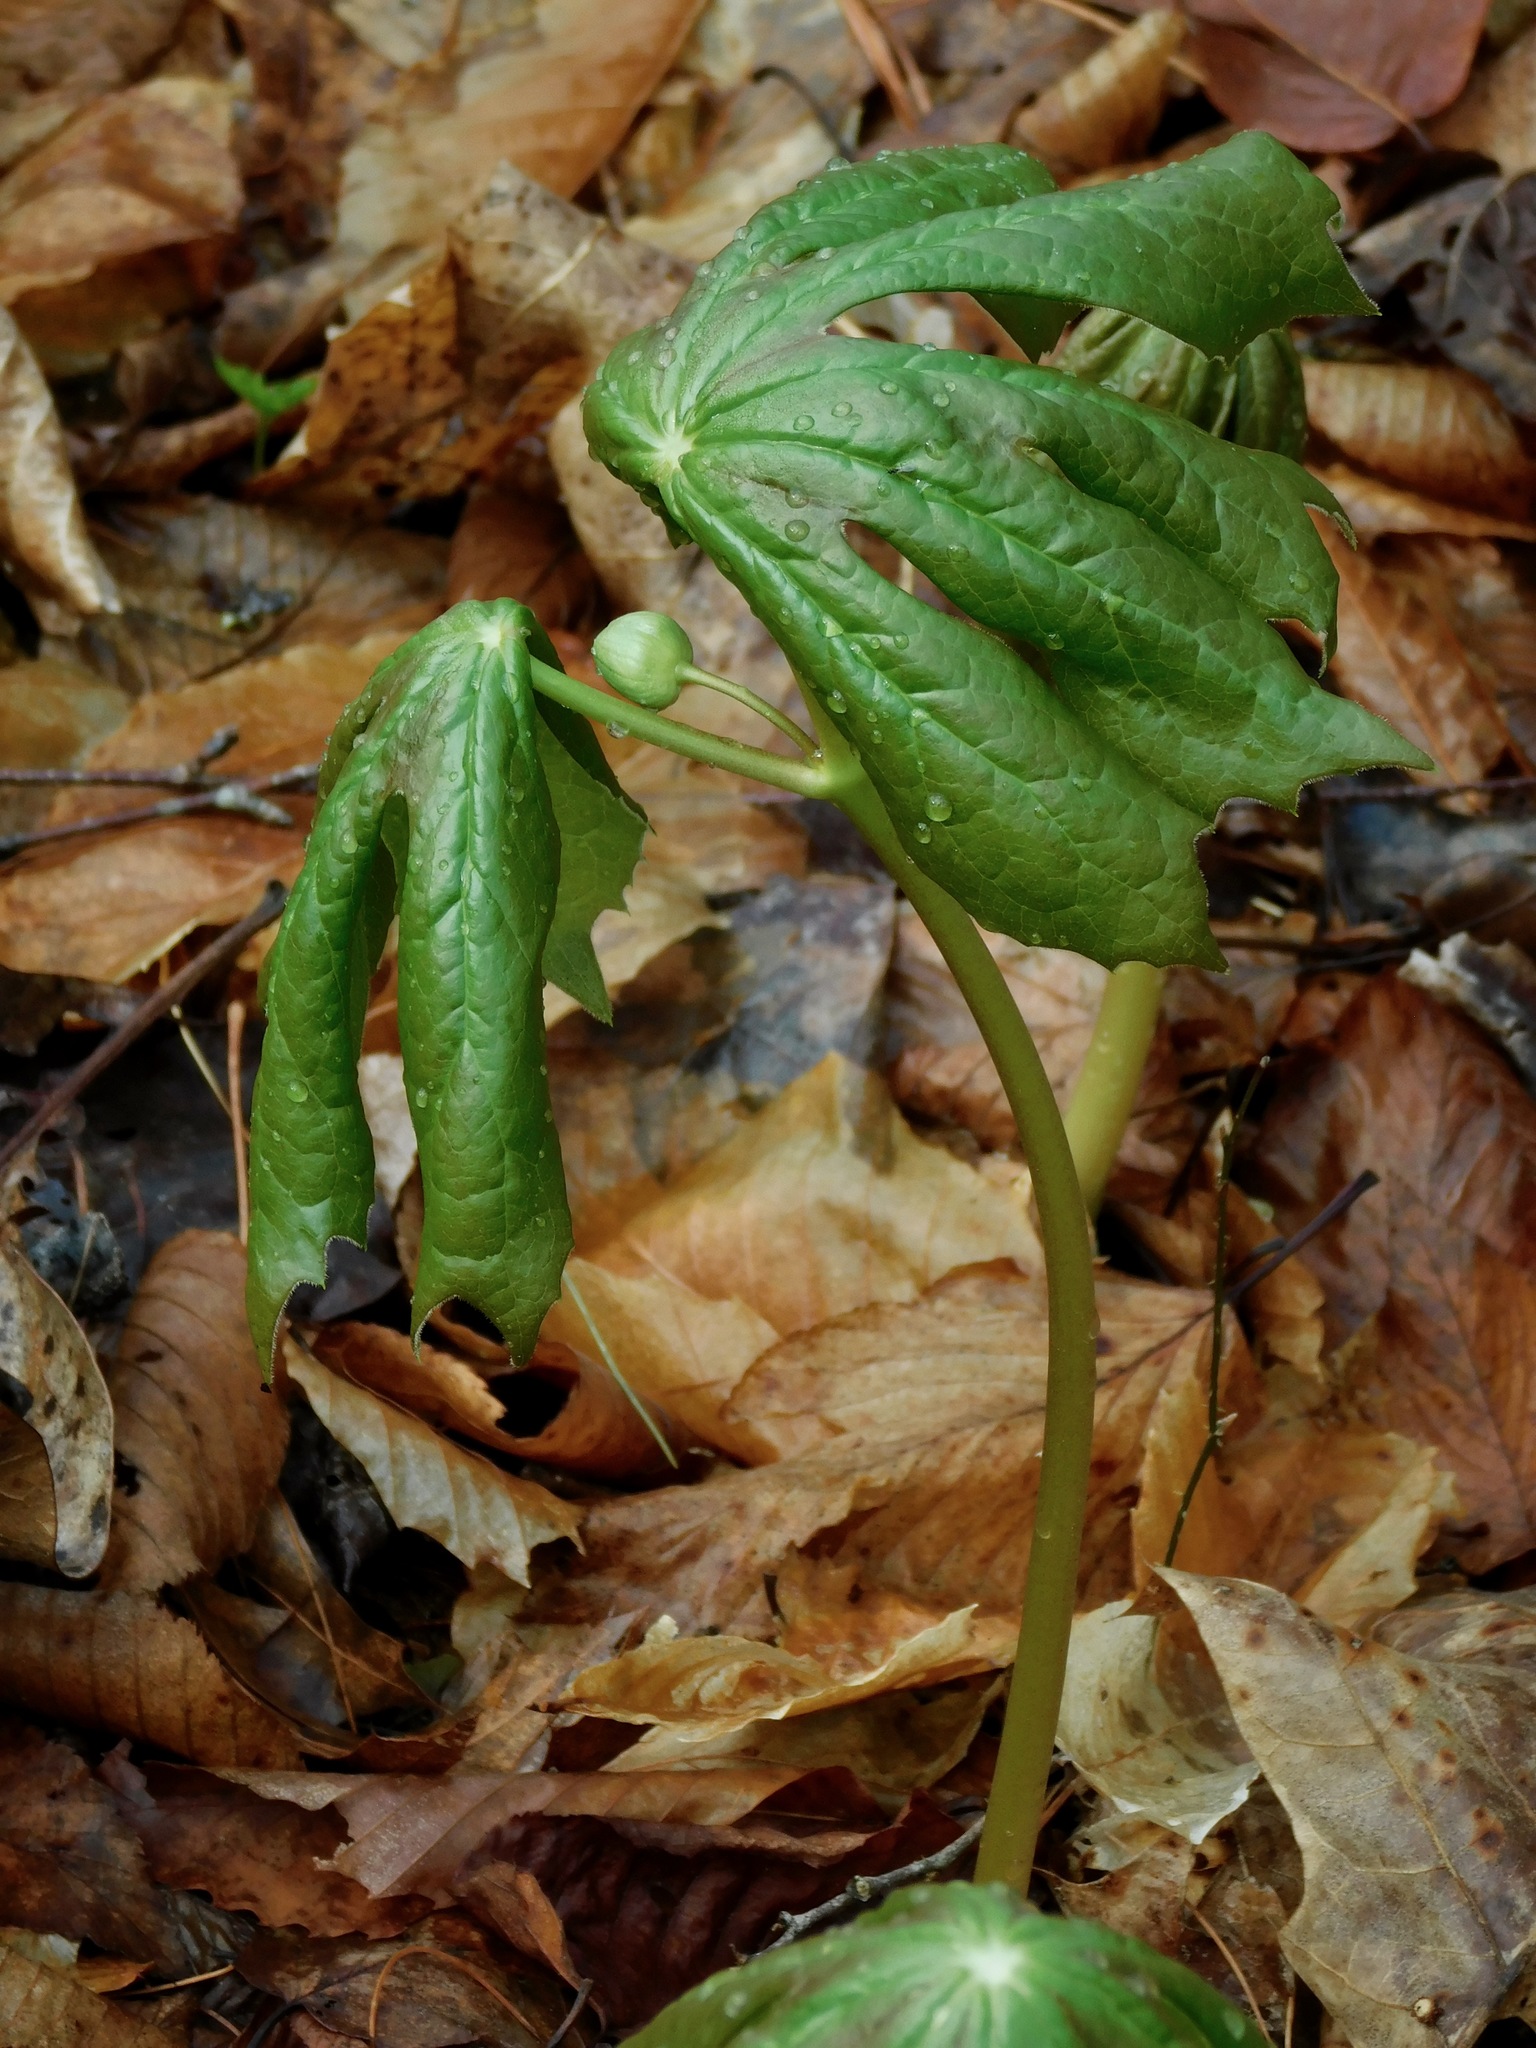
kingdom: Plantae
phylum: Tracheophyta
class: Magnoliopsida
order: Ranunculales
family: Berberidaceae
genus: Podophyllum
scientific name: Podophyllum peltatum
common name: Wild mandrake
